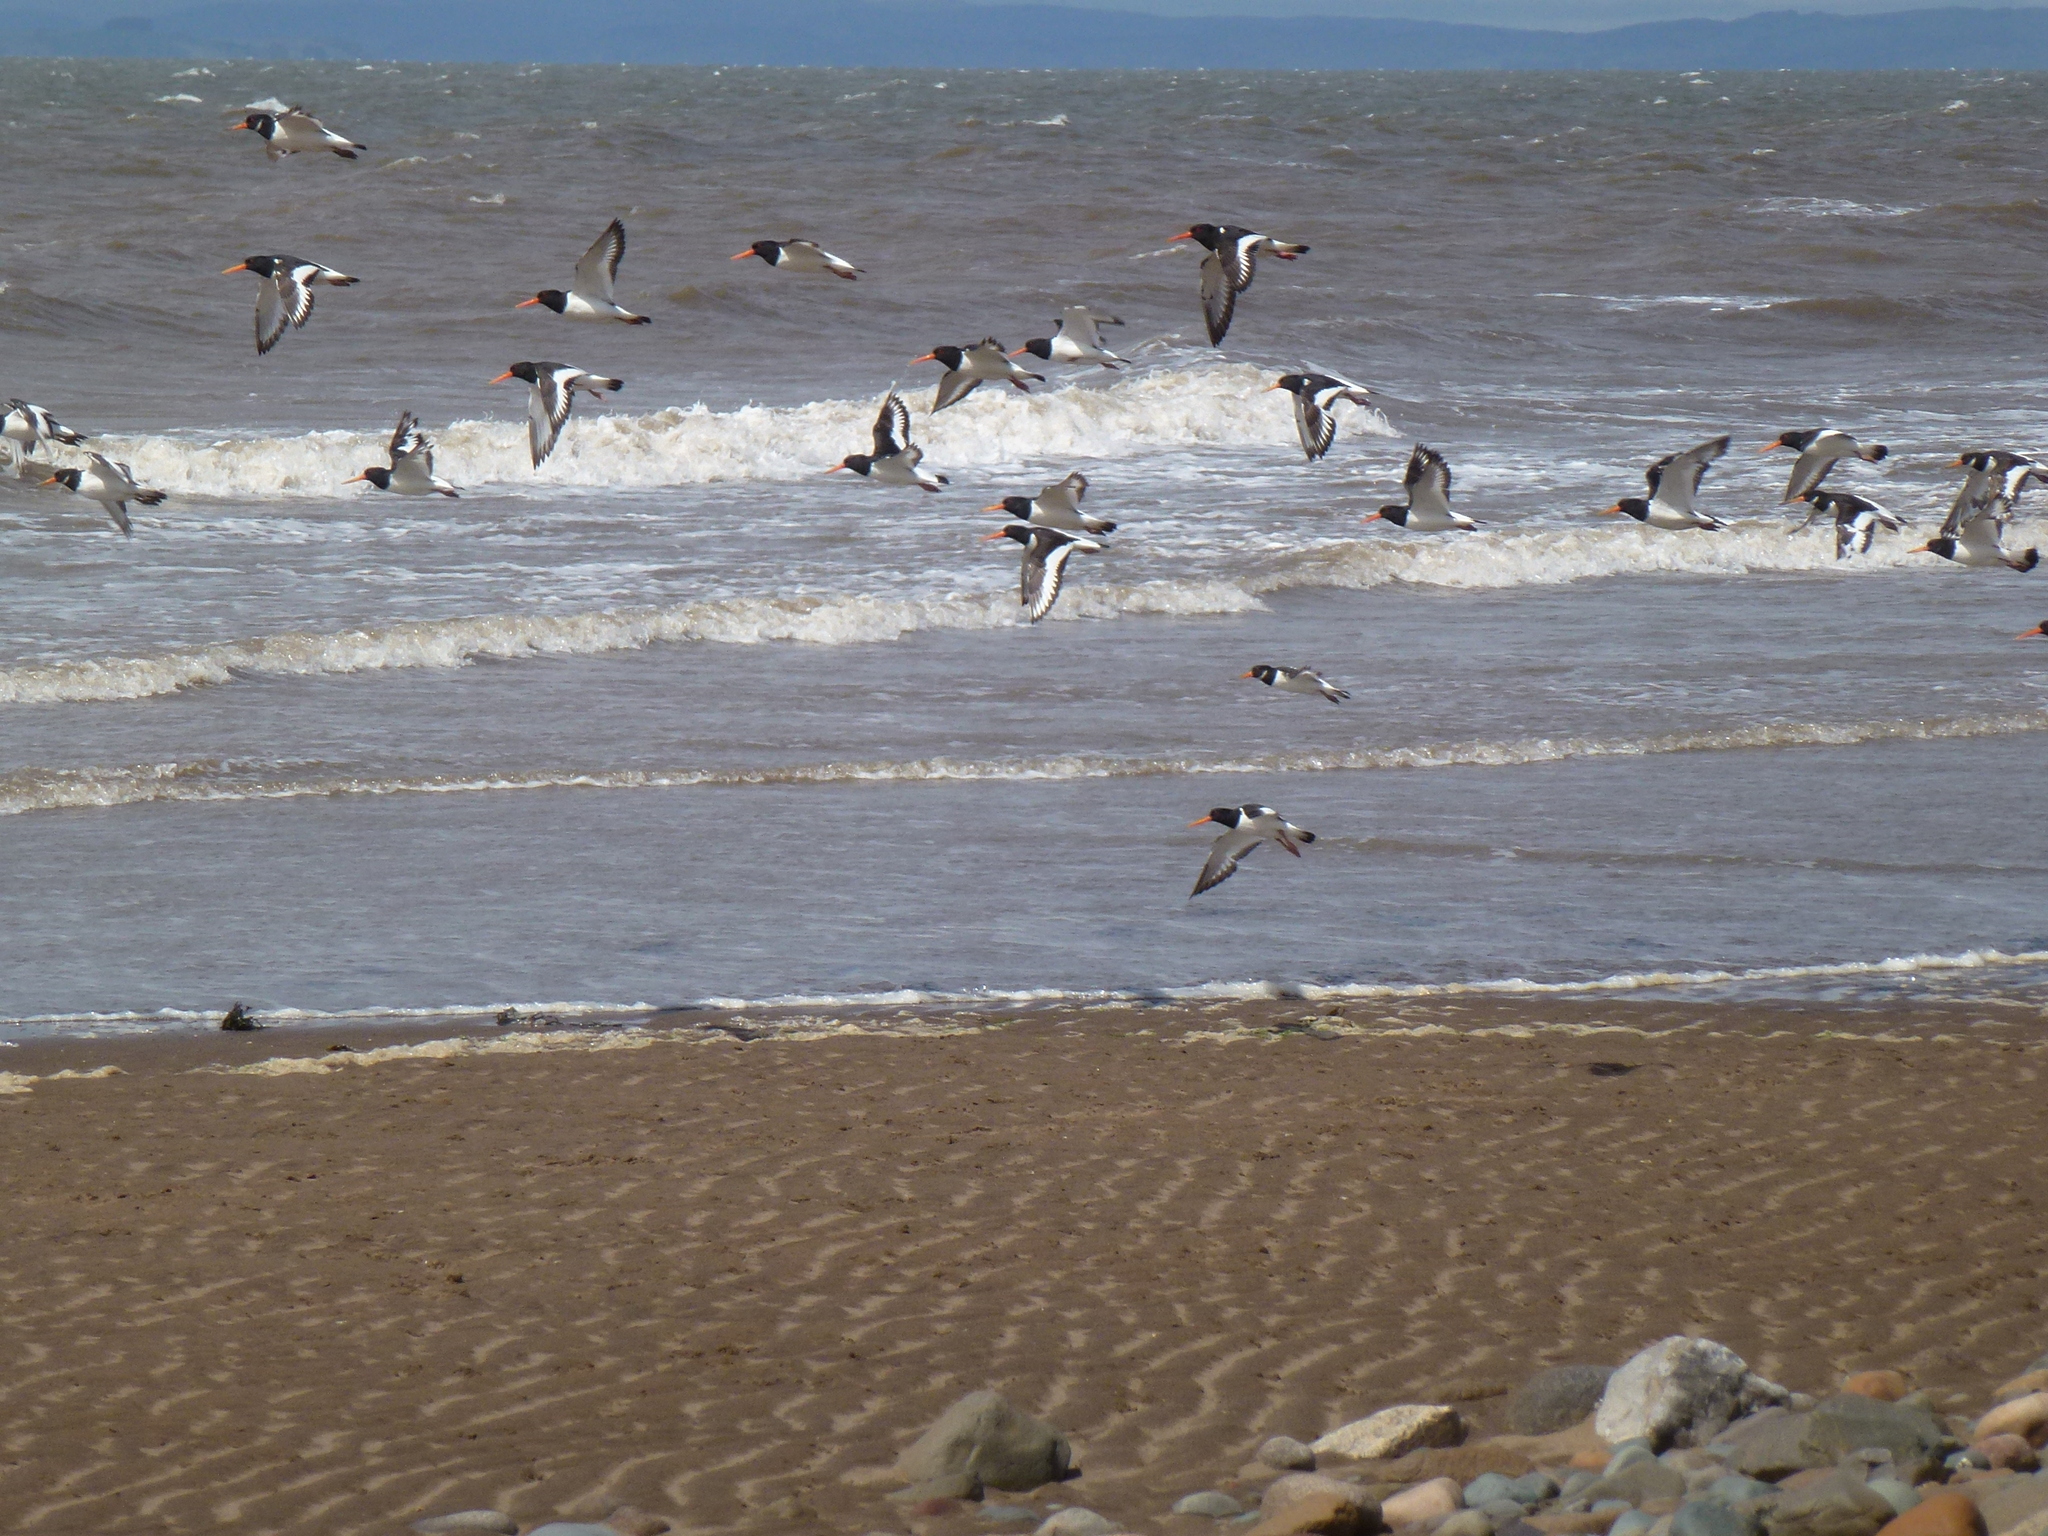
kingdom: Animalia
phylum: Chordata
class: Aves
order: Charadriiformes
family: Haematopodidae
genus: Haematopus
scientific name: Haematopus ostralegus
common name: Eurasian oystercatcher
